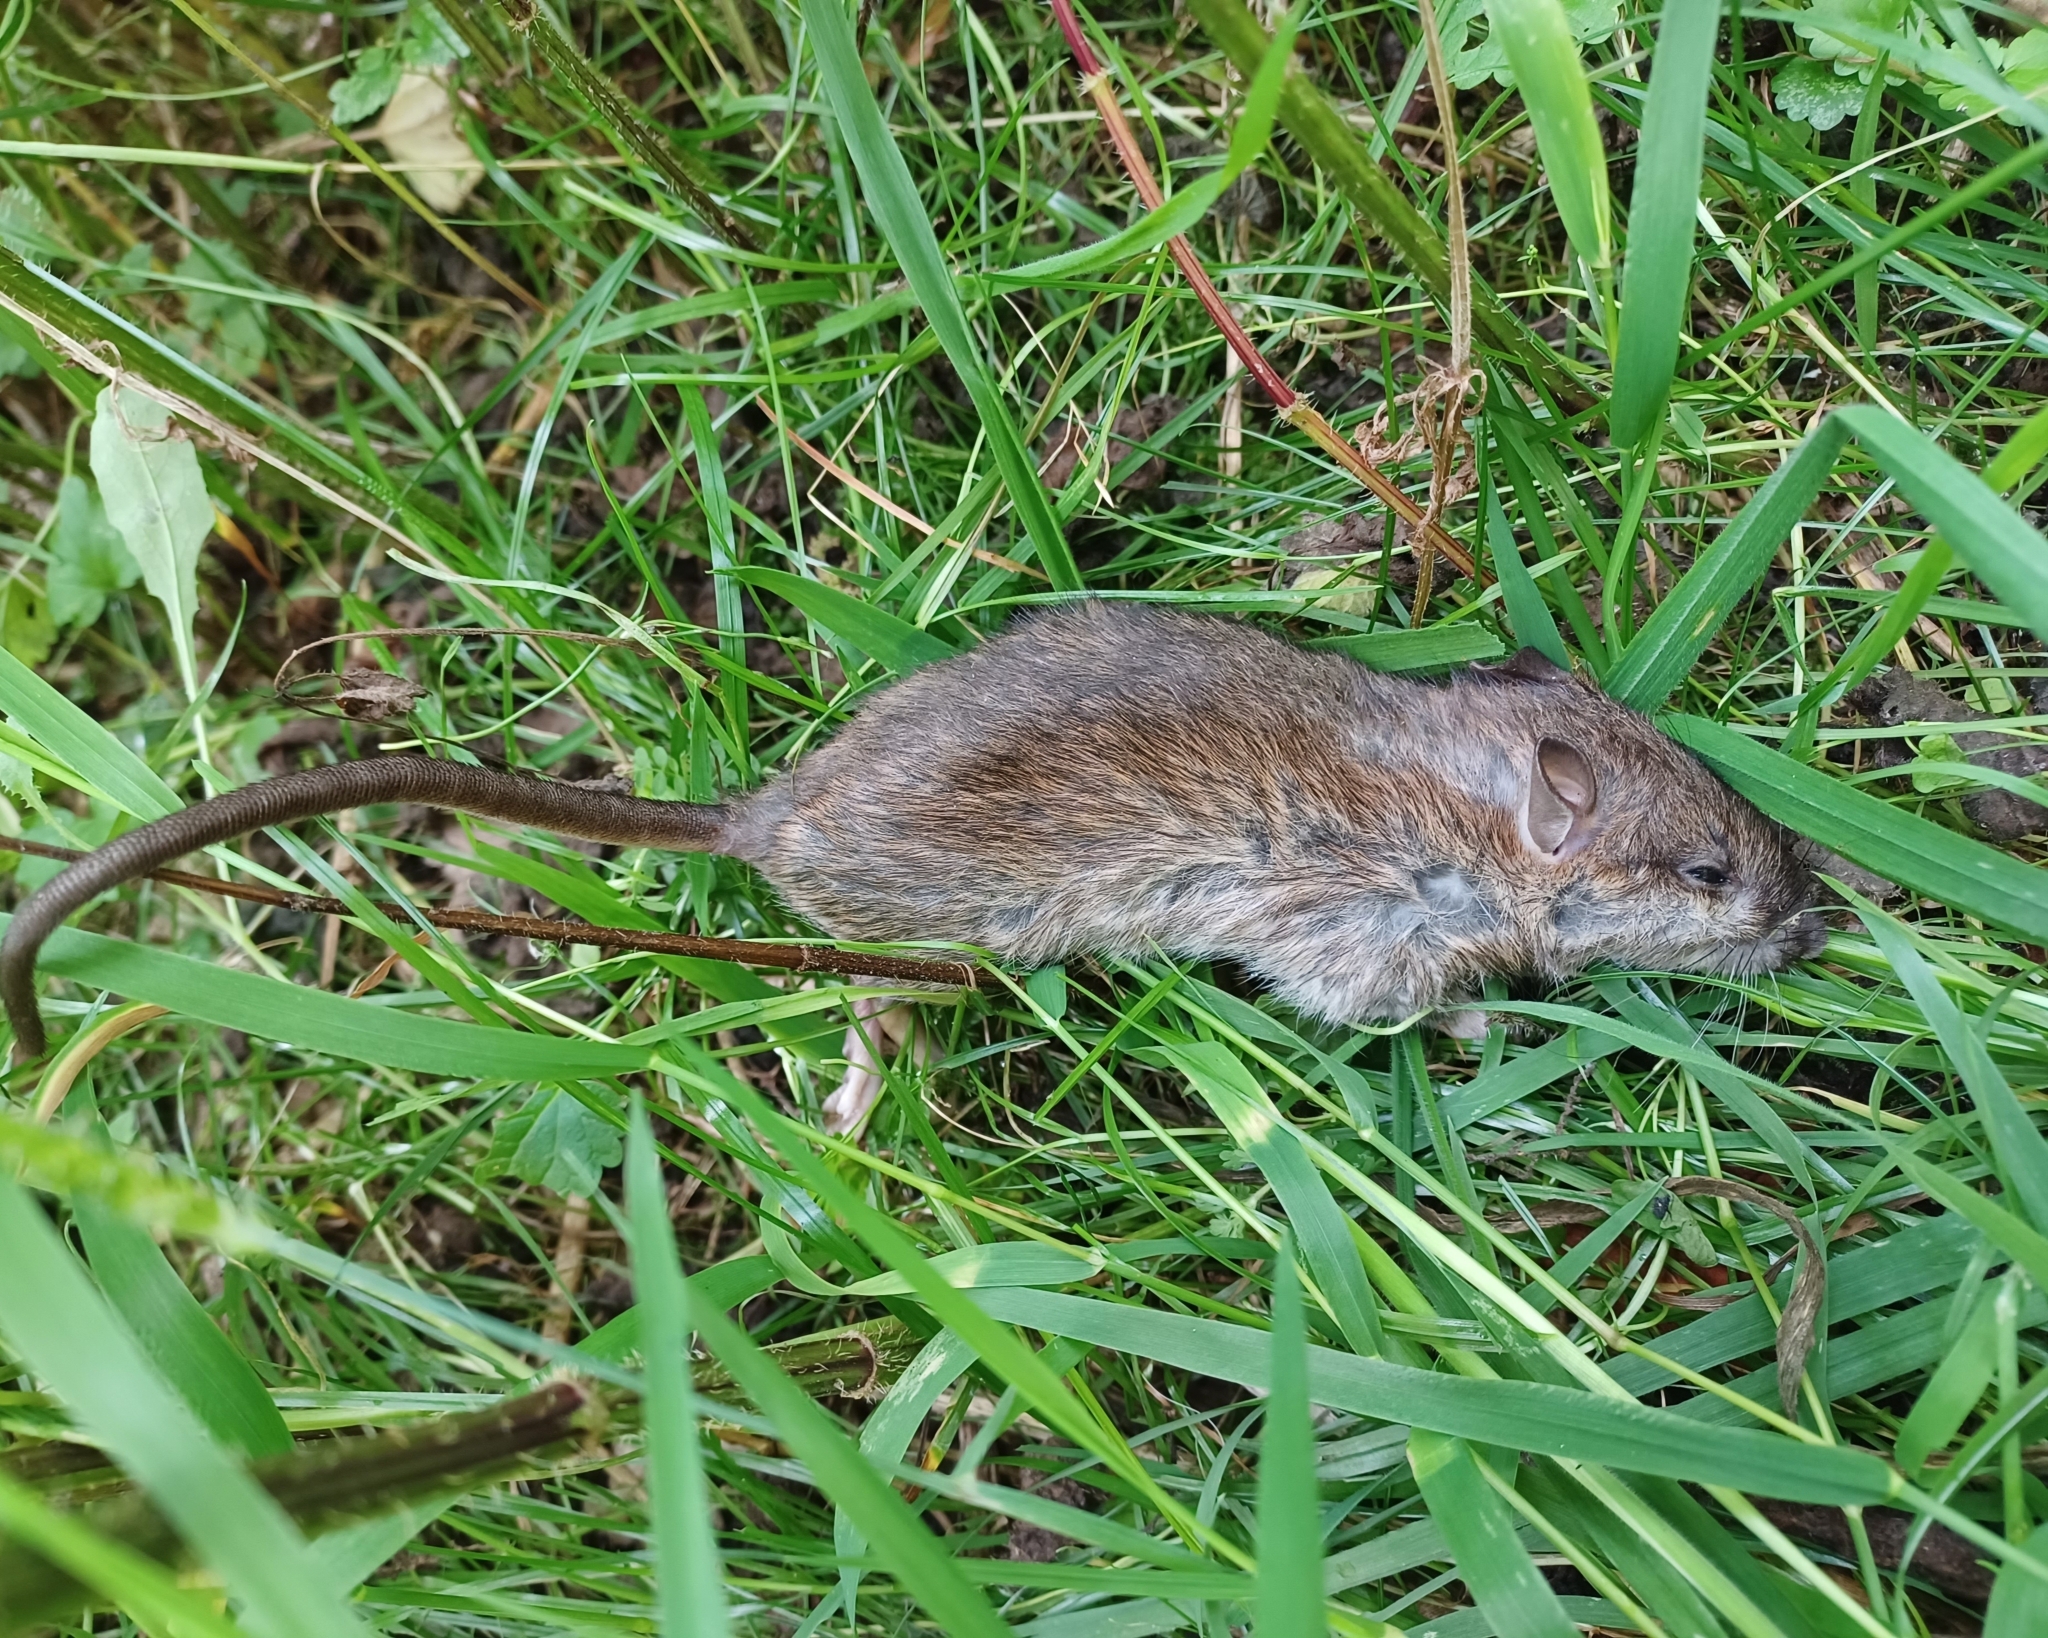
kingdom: Animalia
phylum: Chordata
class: Mammalia
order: Rodentia
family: Muridae
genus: Rattus
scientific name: Rattus norvegicus
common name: Brown rat
